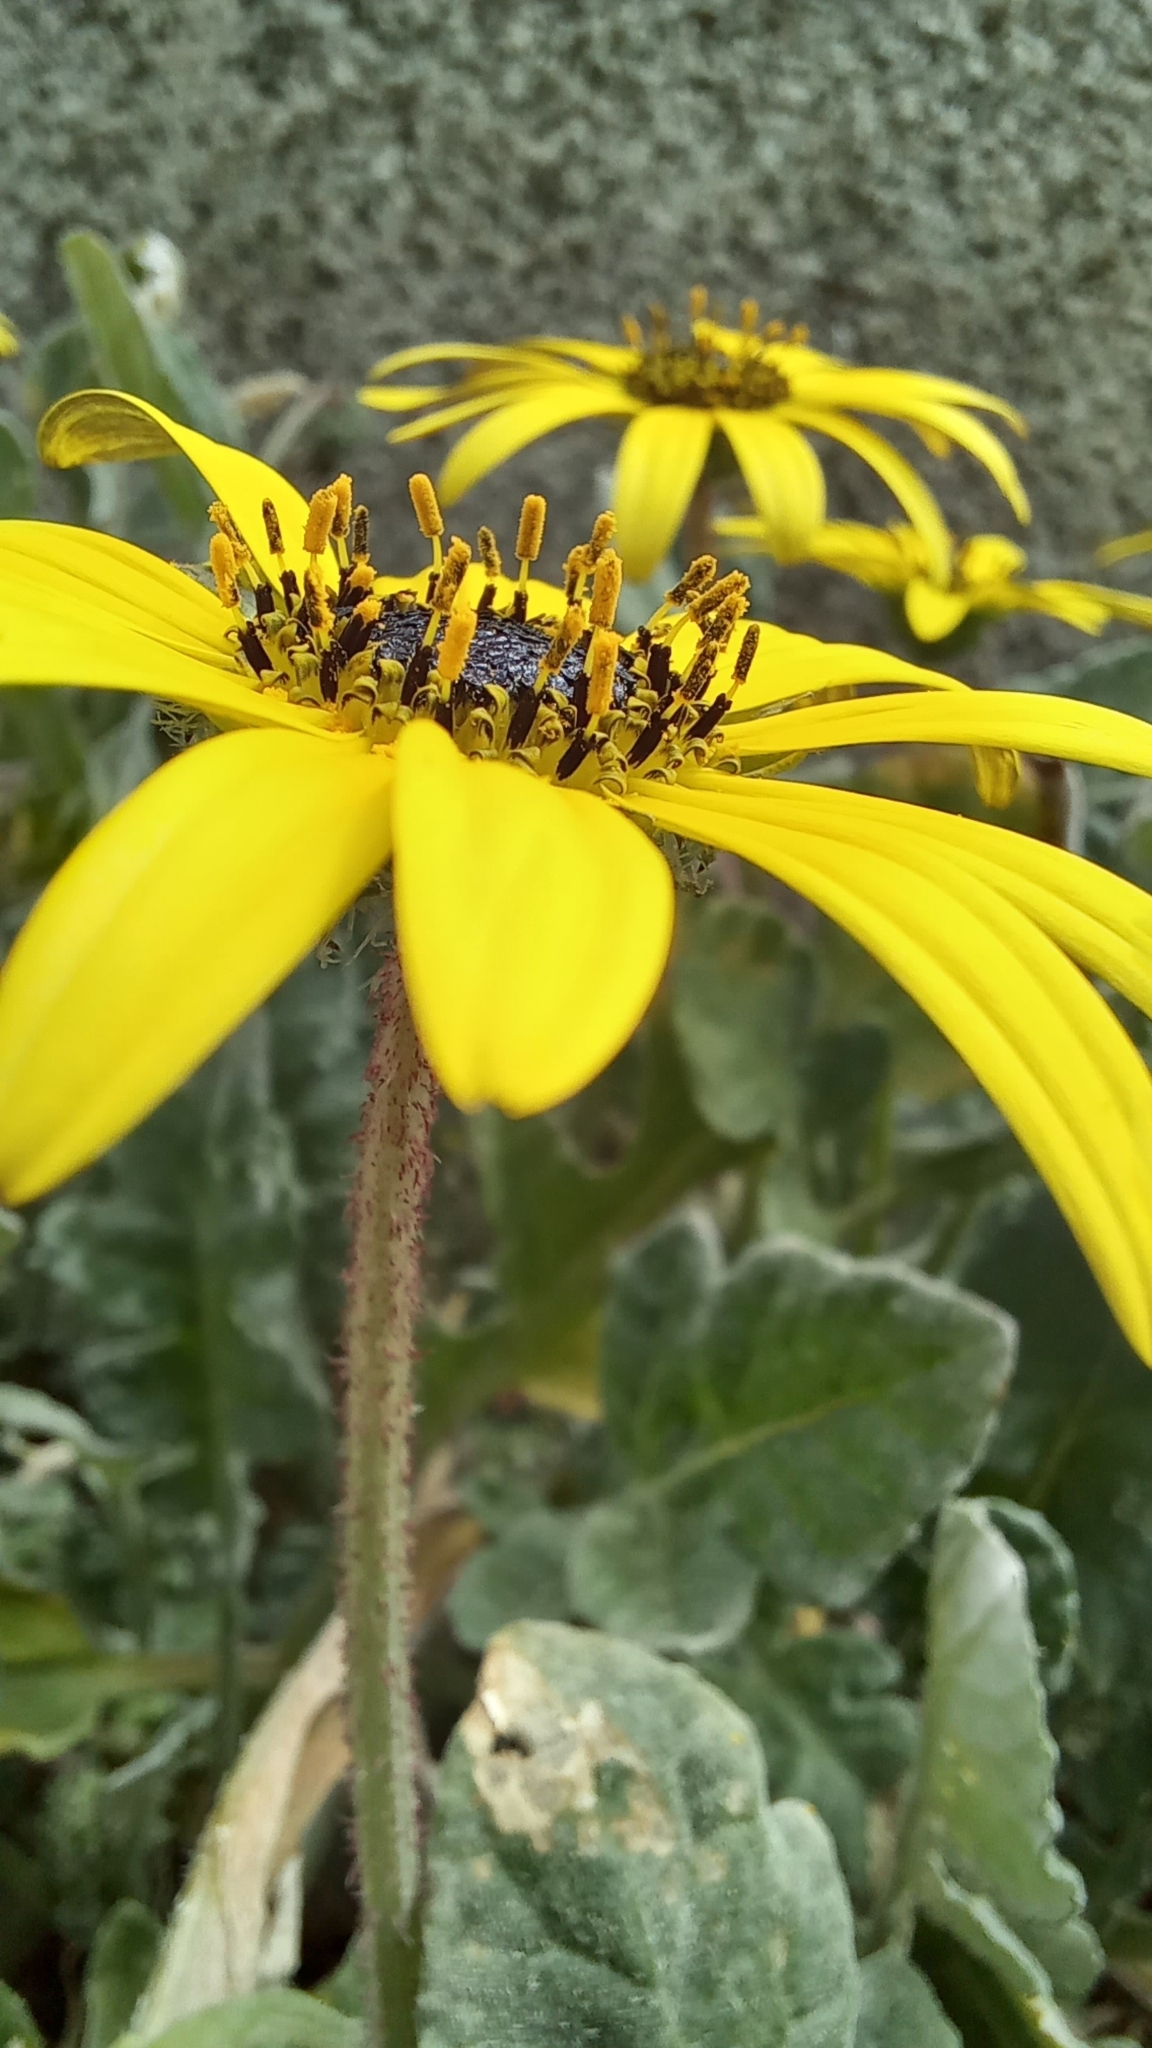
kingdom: Plantae
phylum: Tracheophyta
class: Magnoliopsida
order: Asterales
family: Asteraceae
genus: Arctotheca
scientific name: Arctotheca calendula
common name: Capeweed
